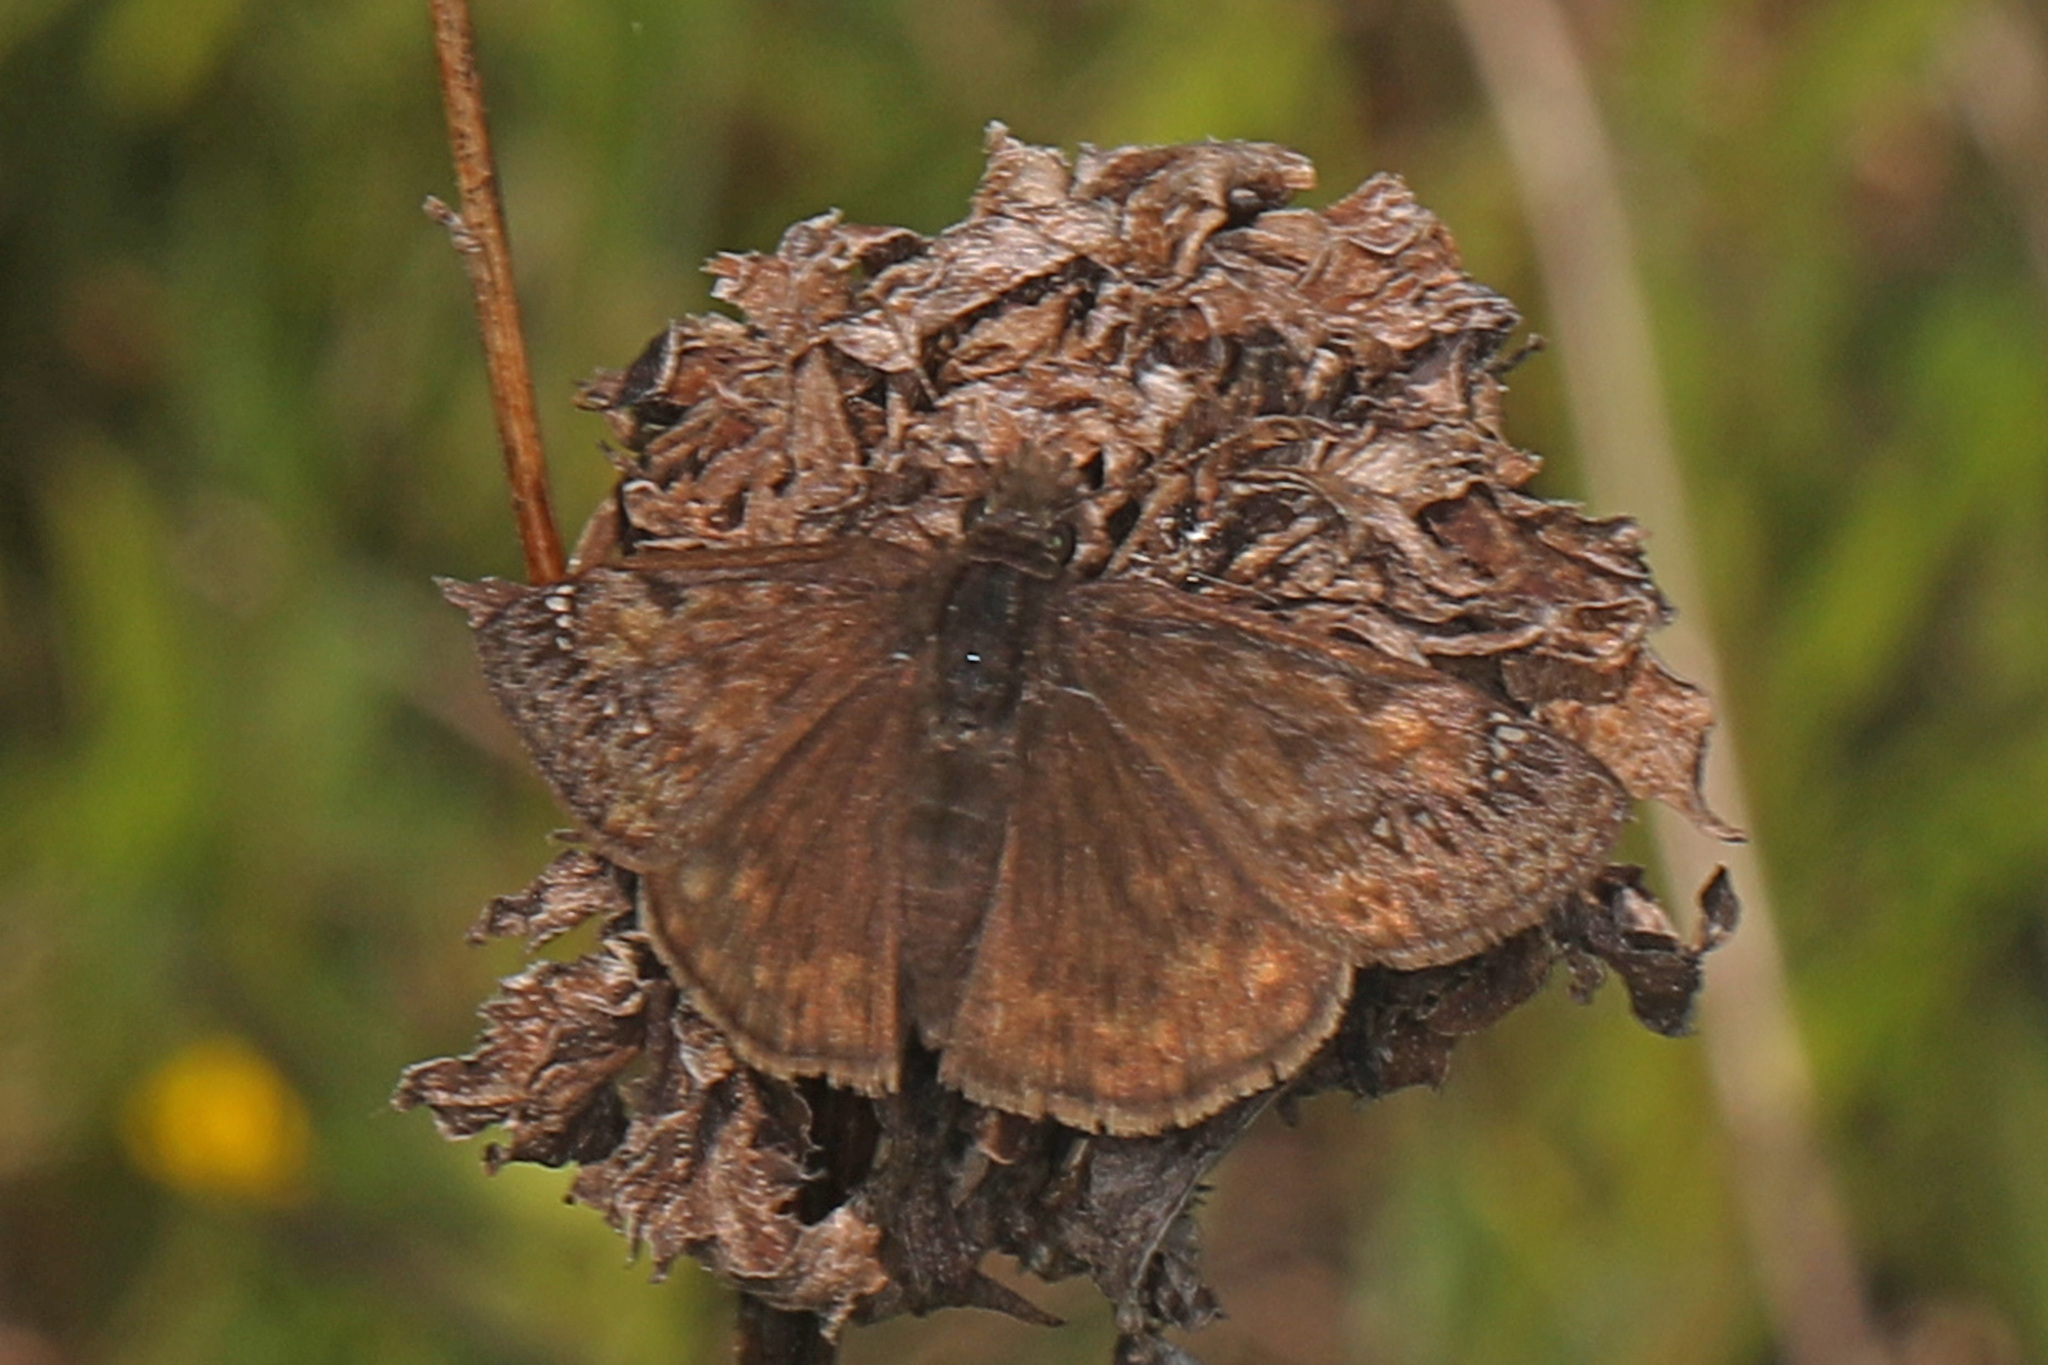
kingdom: Animalia
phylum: Arthropoda
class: Insecta
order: Lepidoptera
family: Hesperiidae
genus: Erynnis
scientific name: Erynnis juvenalis
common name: Juvenal's duskywing
